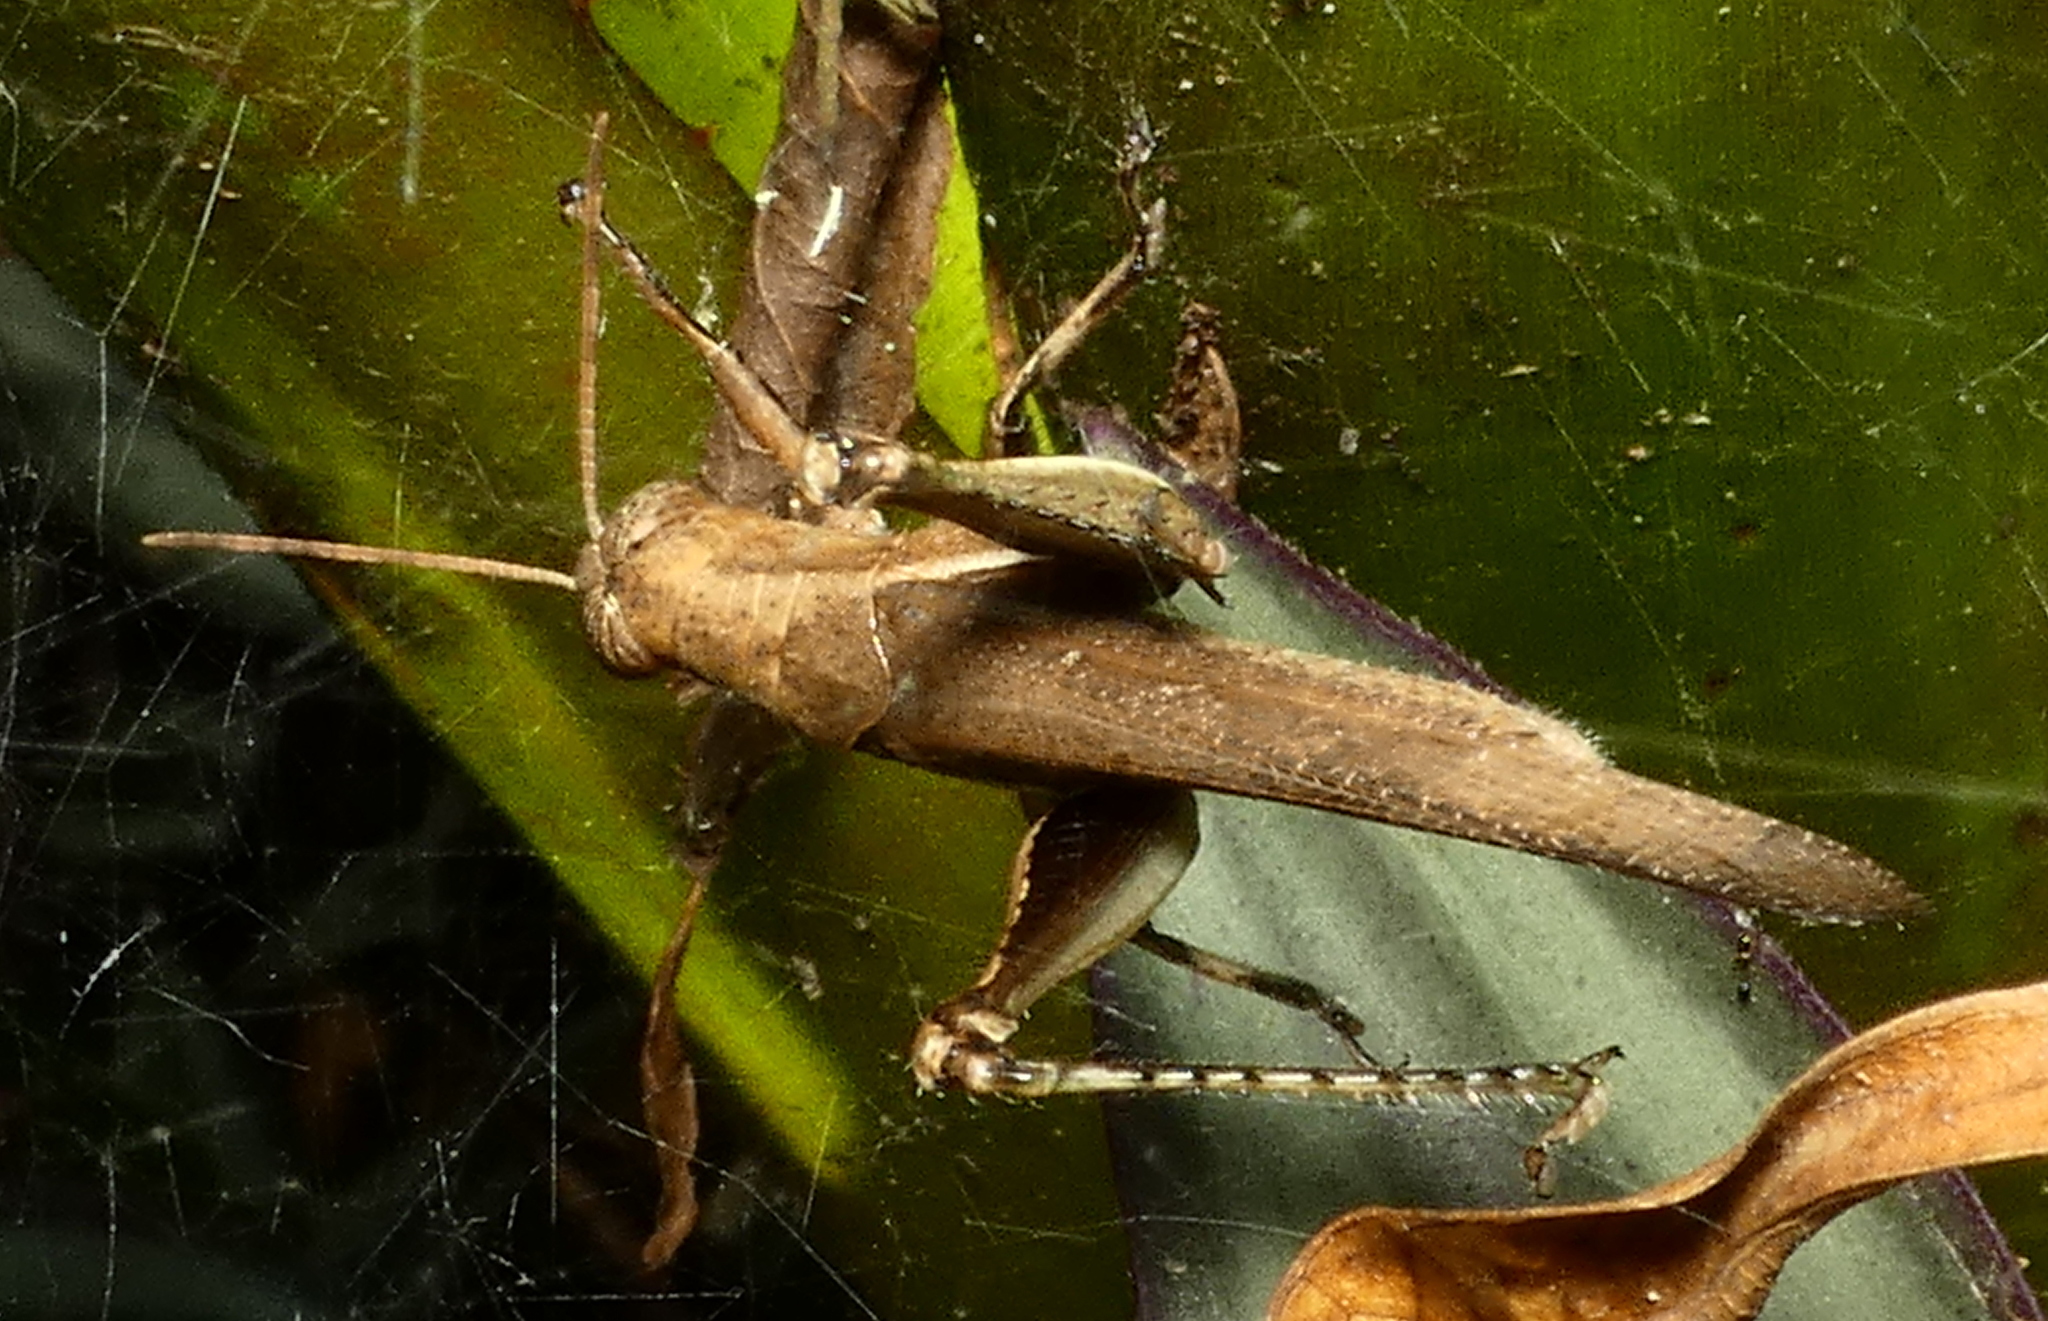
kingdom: Animalia
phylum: Arthropoda
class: Insecta
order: Orthoptera
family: Acrididae
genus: Abracris
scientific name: Abracris flavolineata
